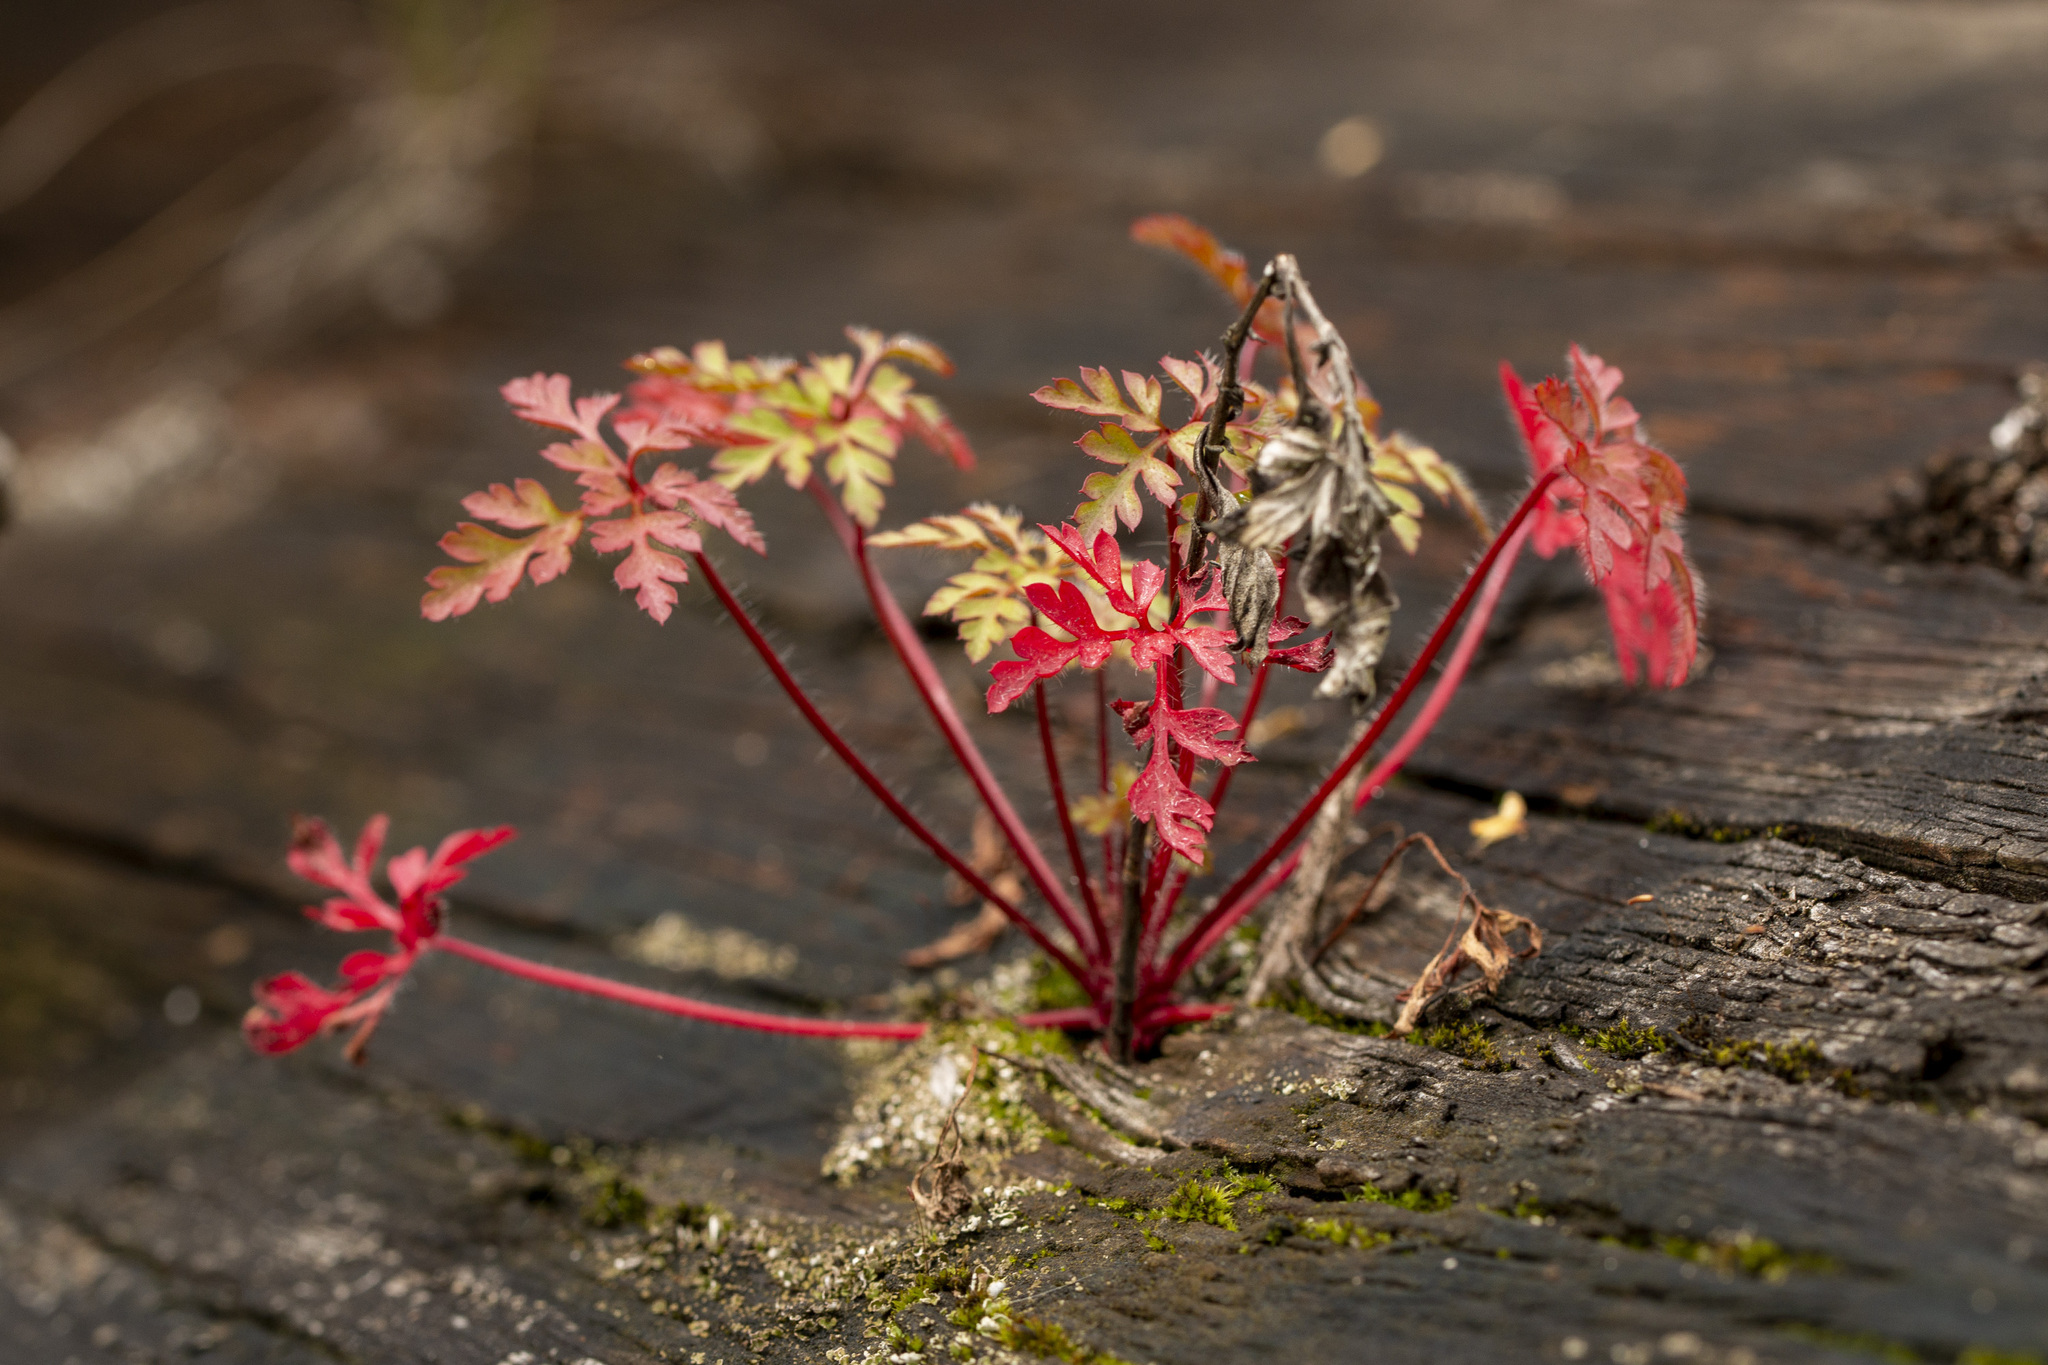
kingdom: Plantae
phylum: Tracheophyta
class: Magnoliopsida
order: Geraniales
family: Geraniaceae
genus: Geranium
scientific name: Geranium robertianum
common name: Herb-robert
